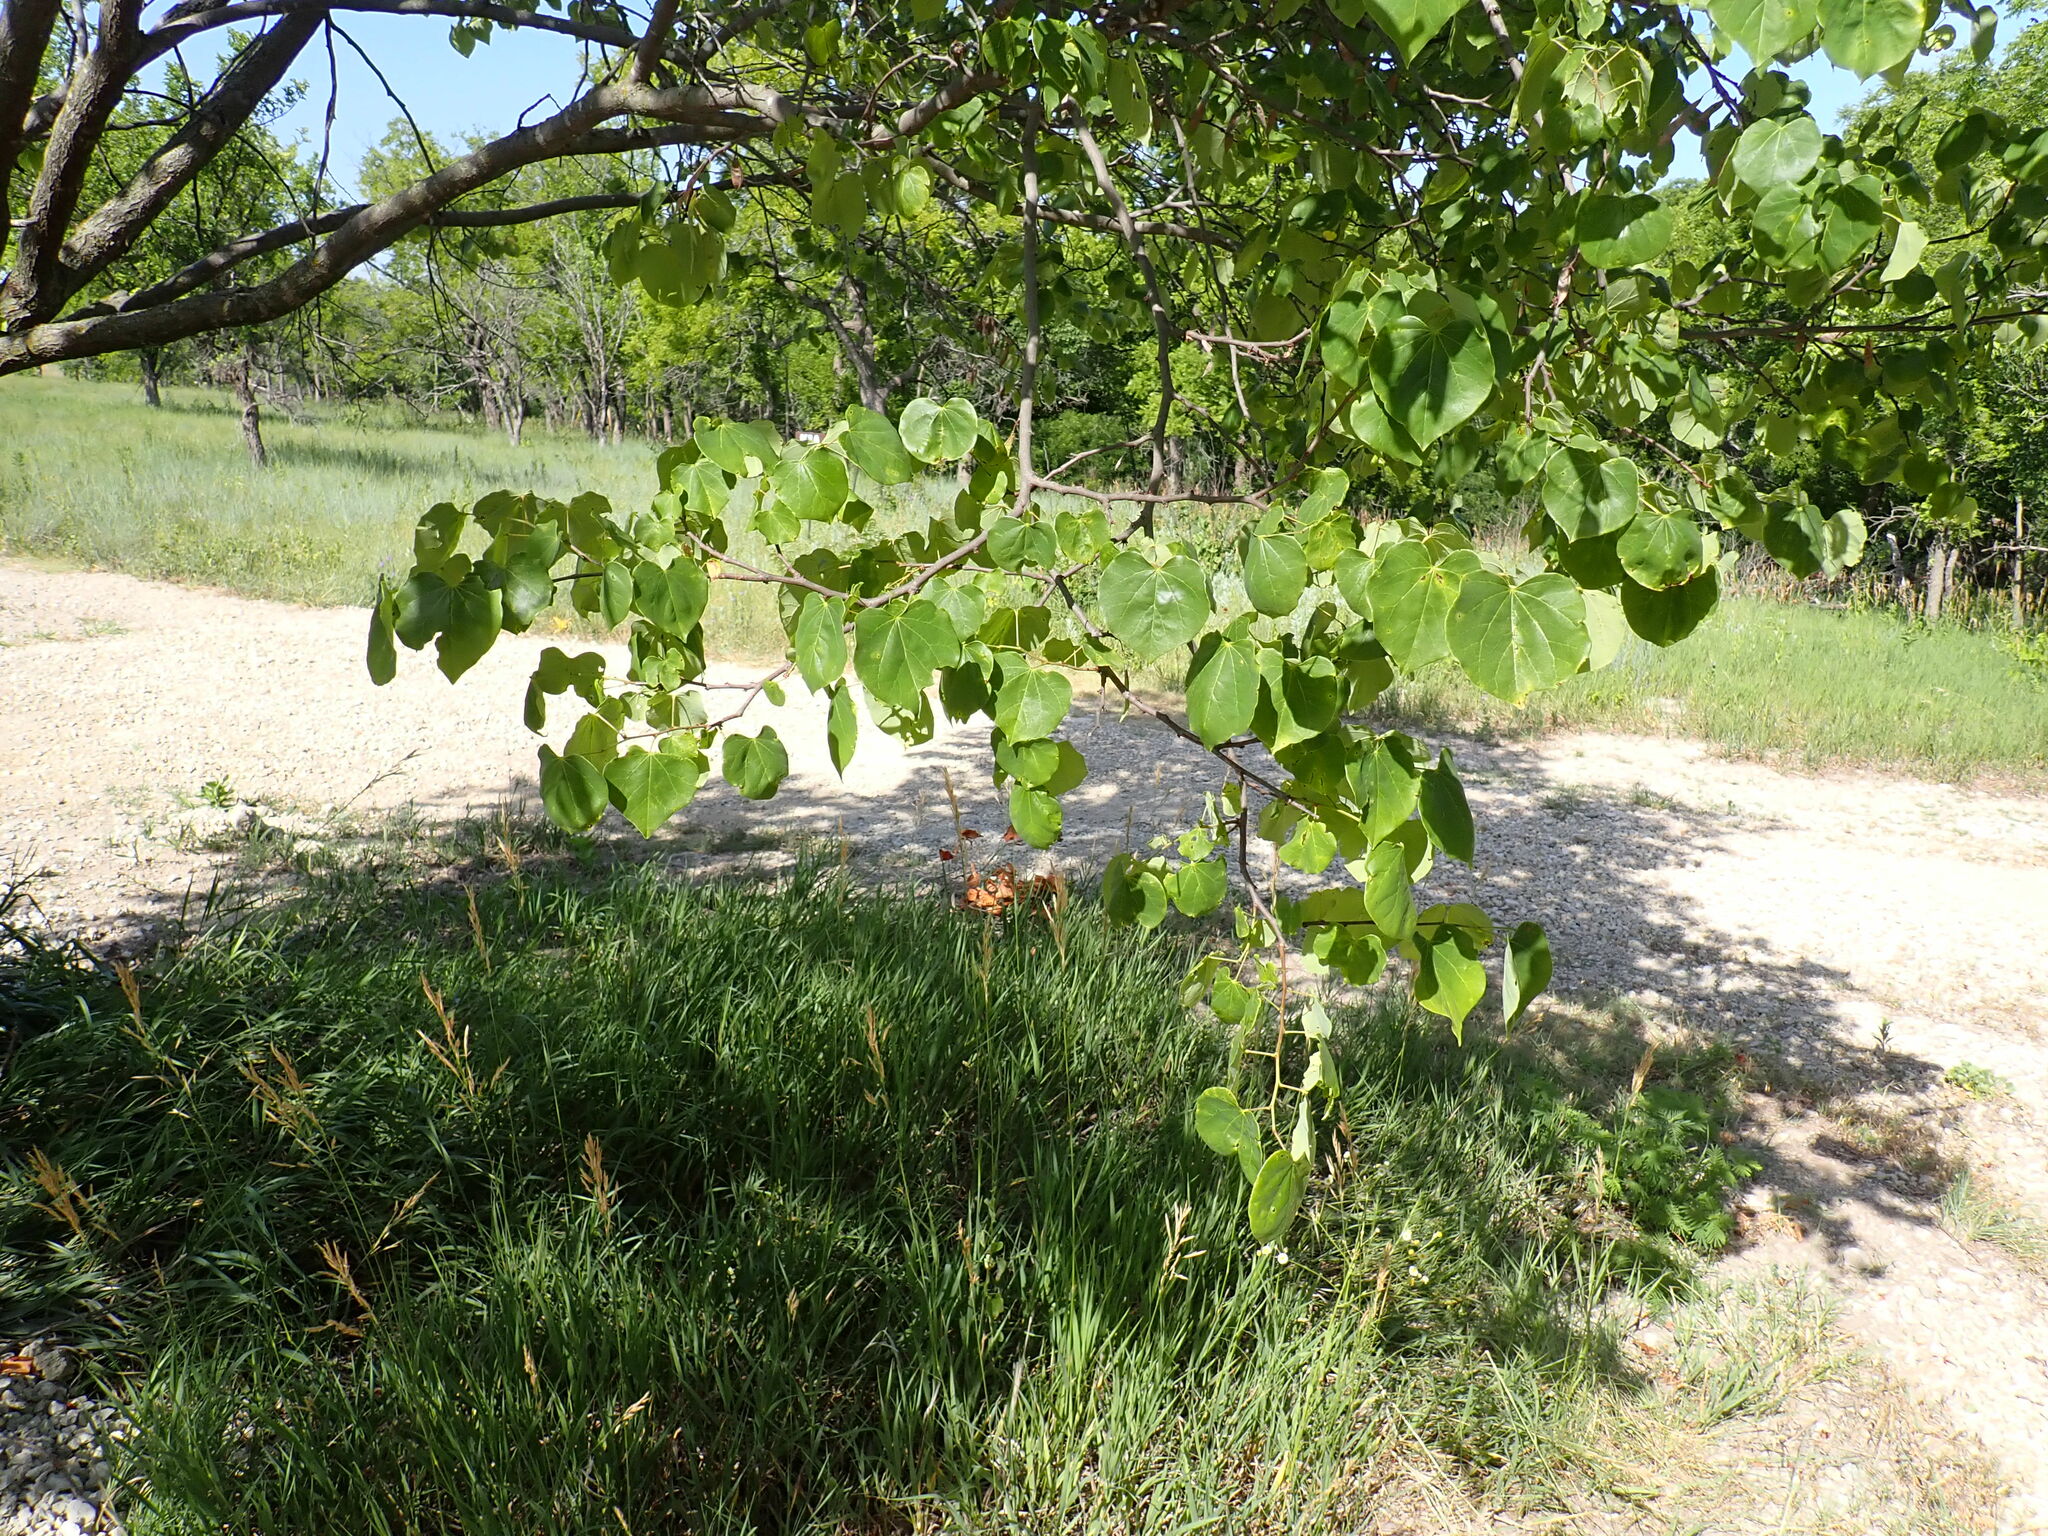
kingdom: Plantae
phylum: Tracheophyta
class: Magnoliopsida
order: Malpighiales
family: Salicaceae
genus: Populus
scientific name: Populus deltoides
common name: Eastern cottonwood
